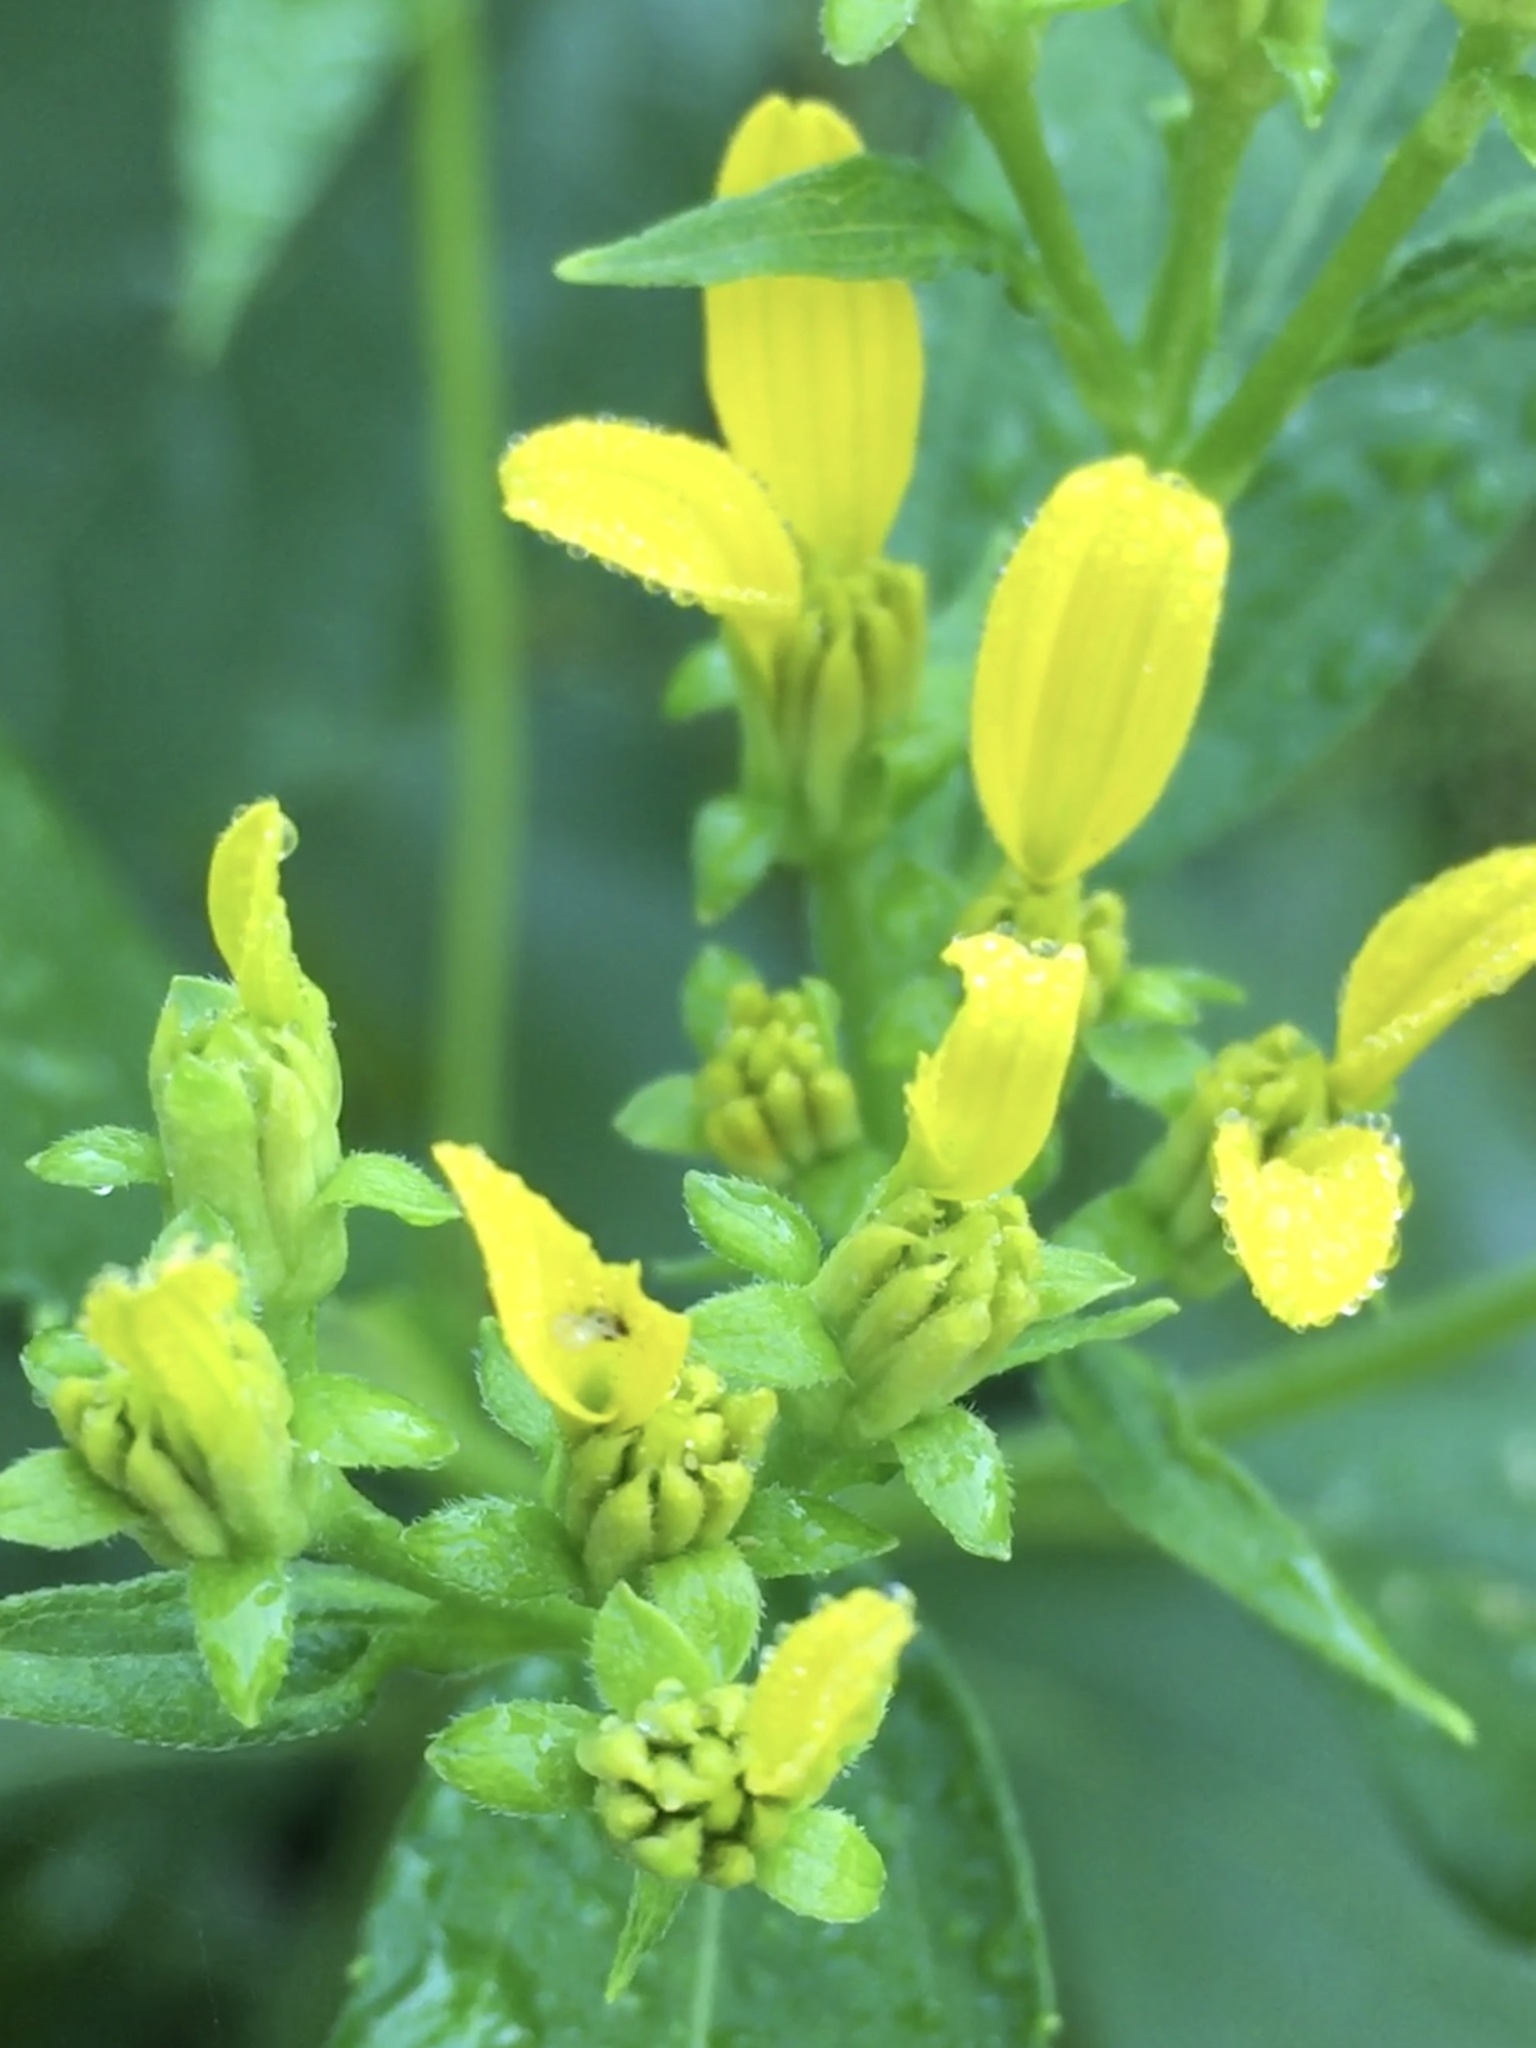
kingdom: Plantae
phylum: Tracheophyta
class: Magnoliopsida
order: Asterales
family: Asteraceae
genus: Verbesina
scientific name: Verbesina occidentalis
